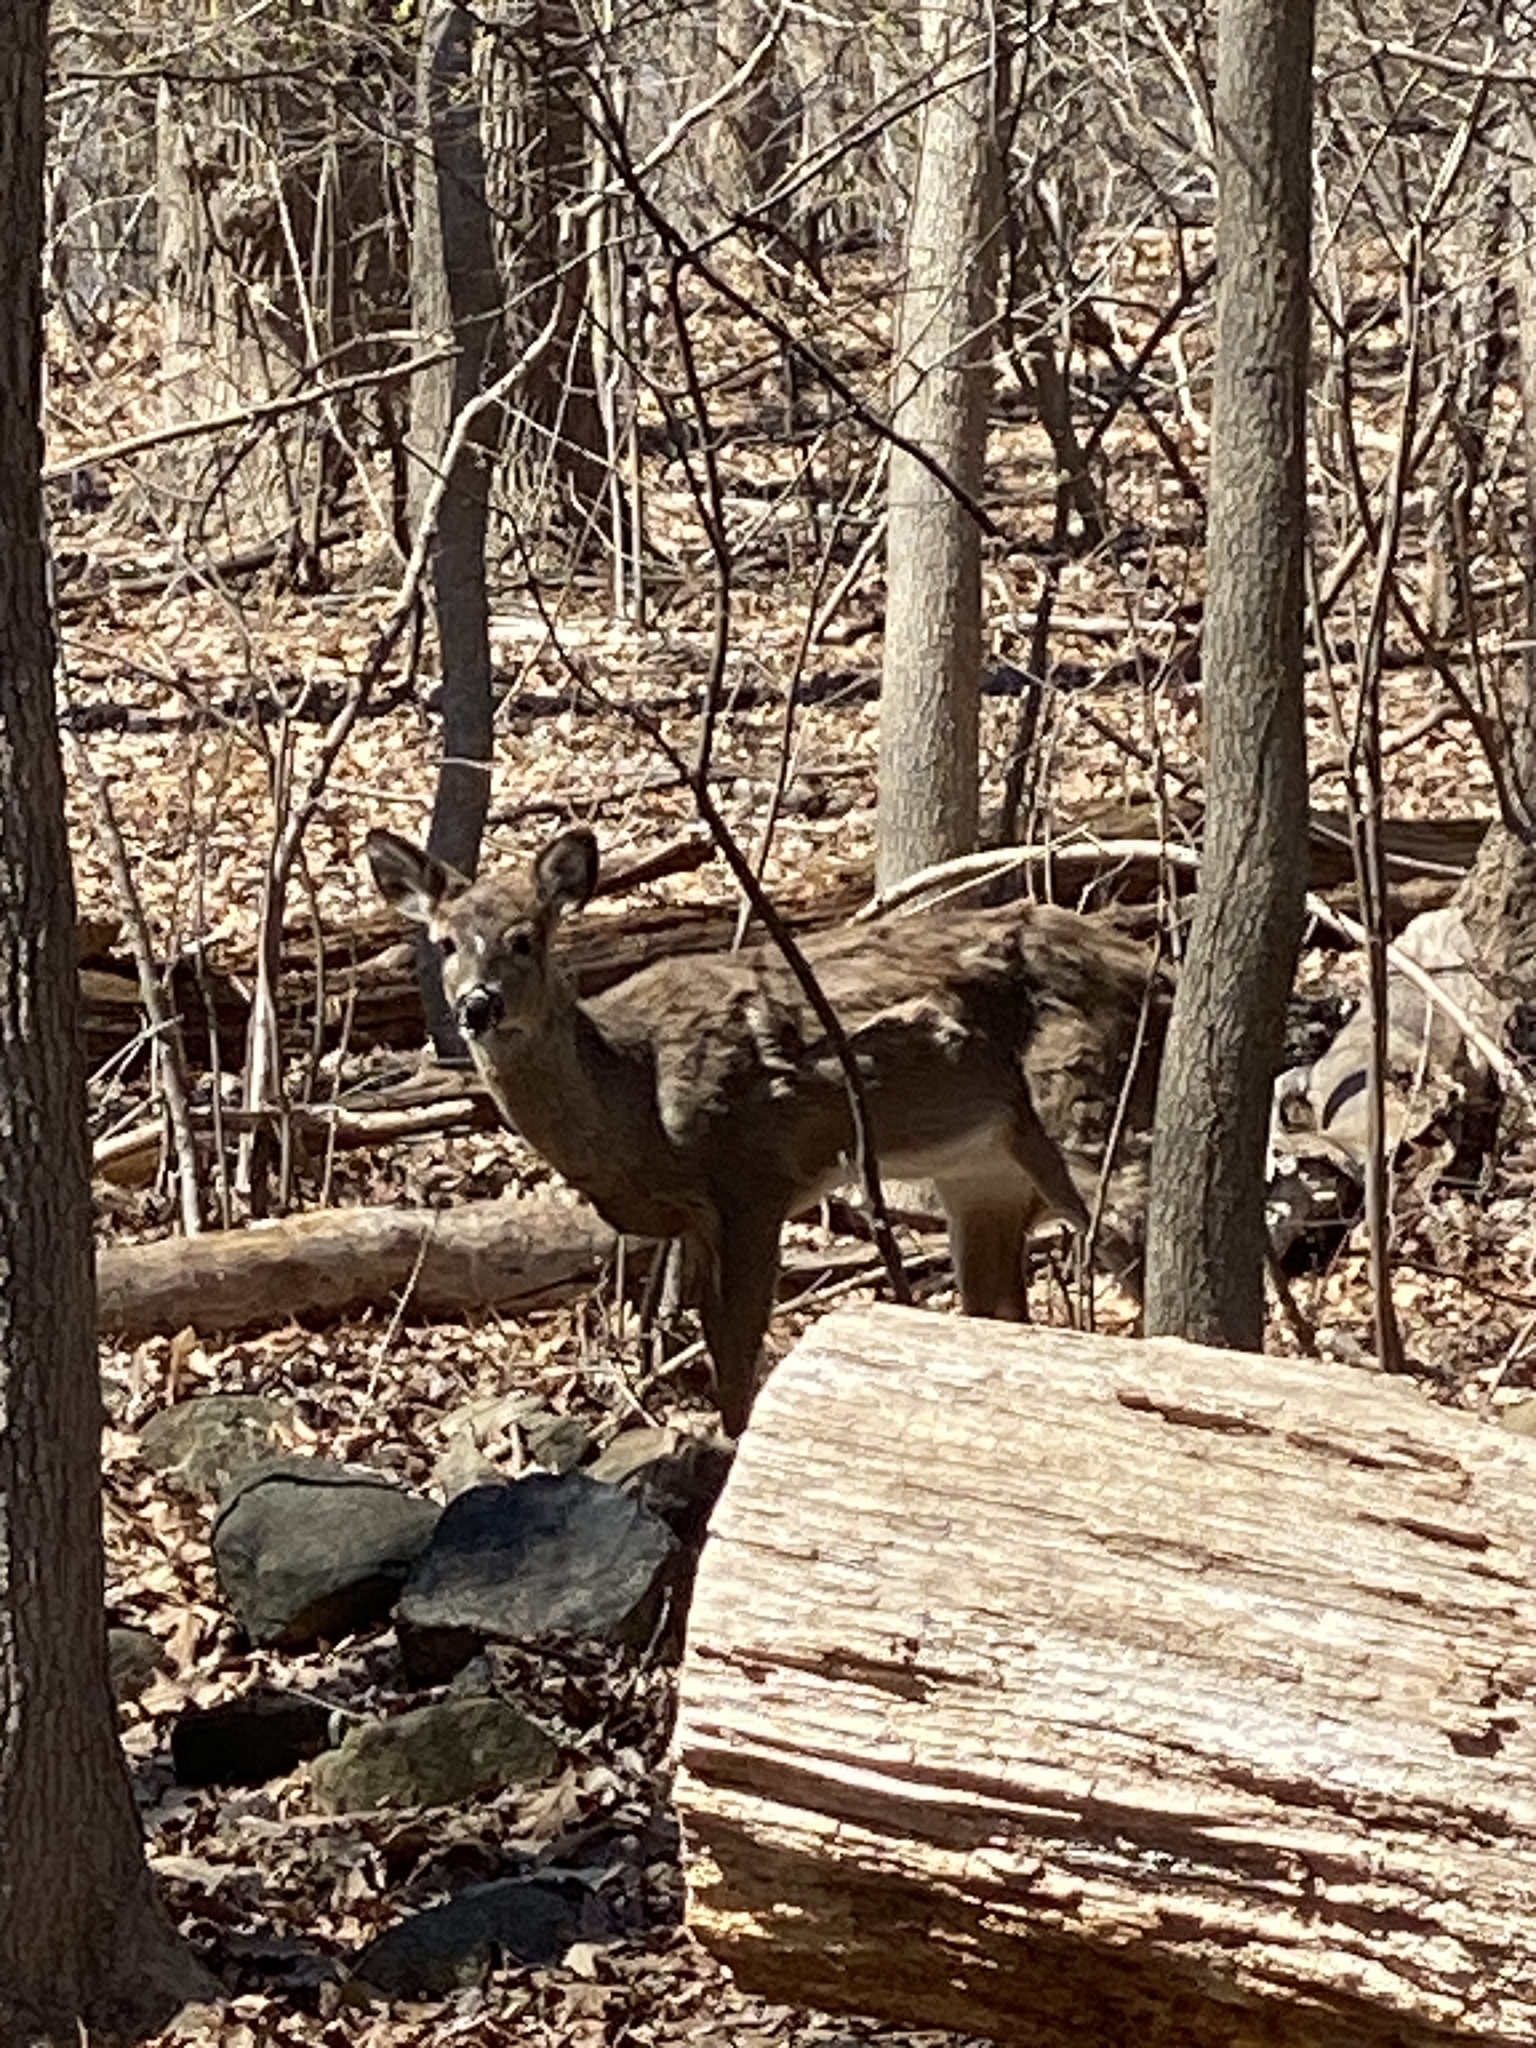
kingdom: Animalia
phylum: Chordata
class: Mammalia
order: Artiodactyla
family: Cervidae
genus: Odocoileus
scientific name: Odocoileus virginianus
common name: White-tailed deer
